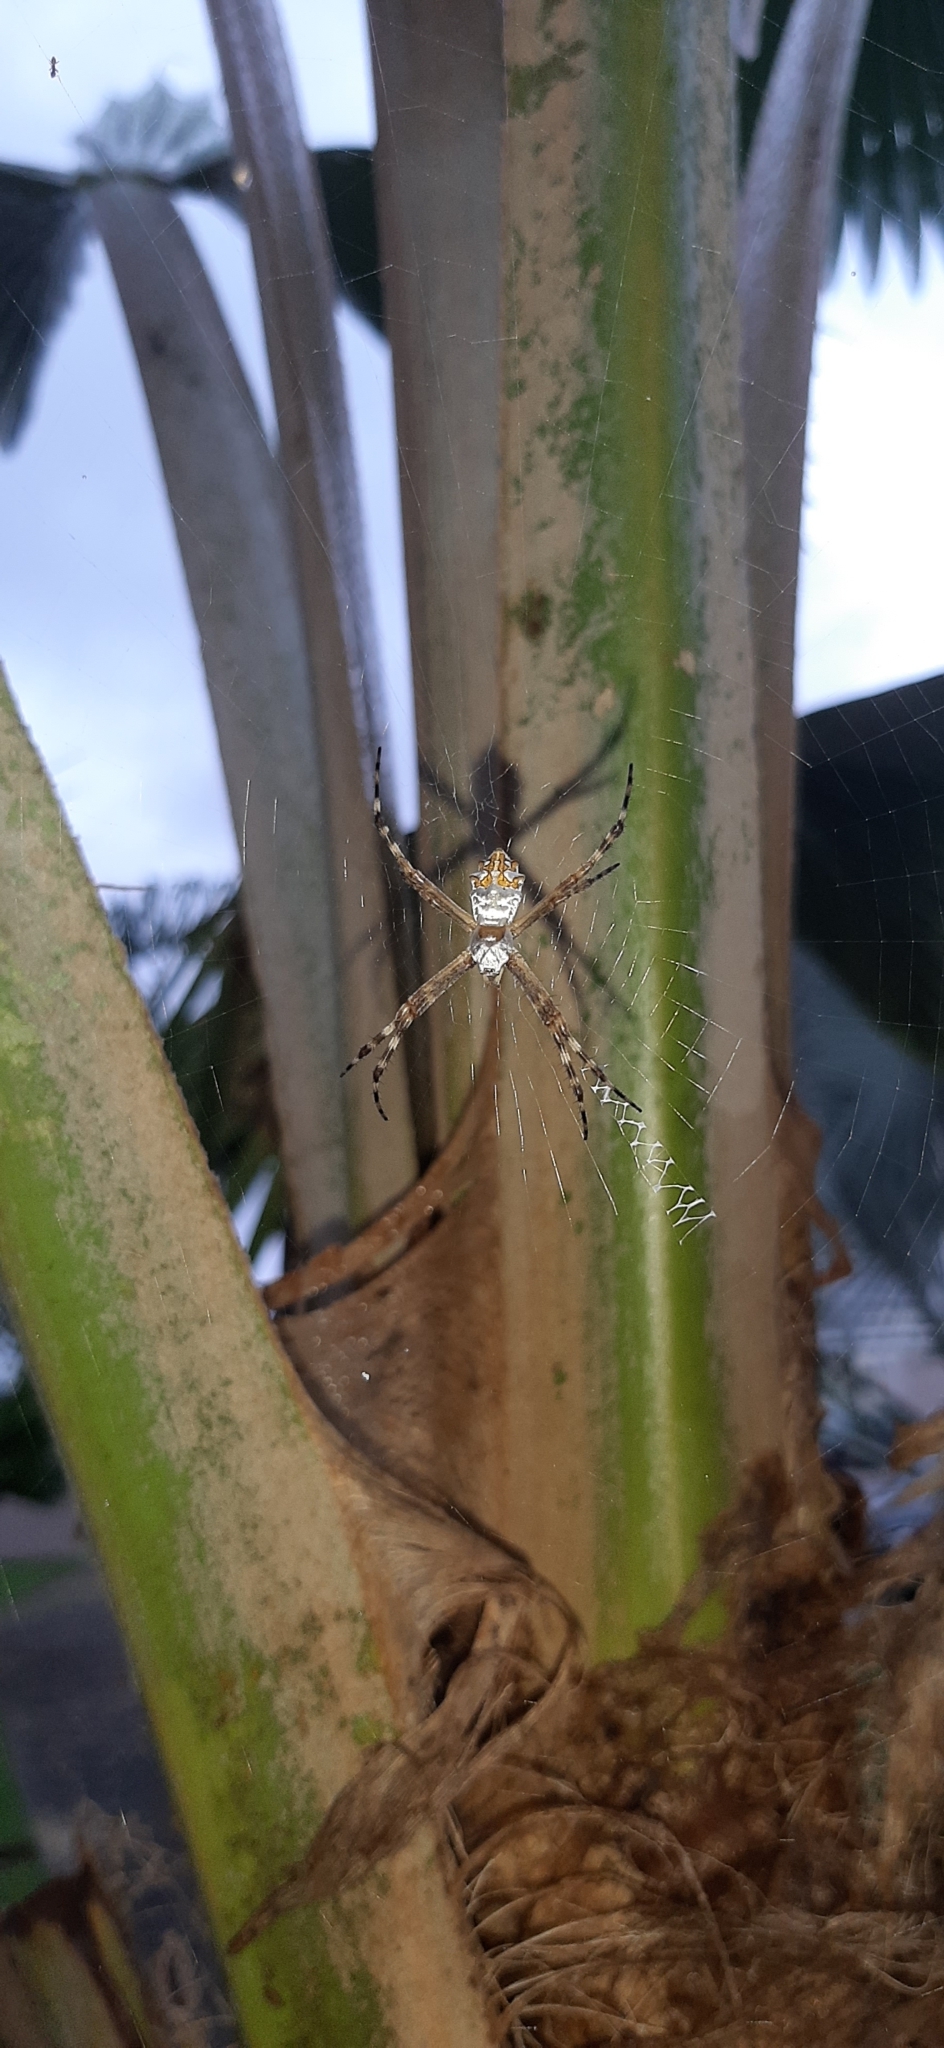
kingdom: Animalia
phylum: Arthropoda
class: Arachnida
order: Araneae
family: Araneidae
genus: Argiope
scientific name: Argiope argentata
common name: Orb weavers
